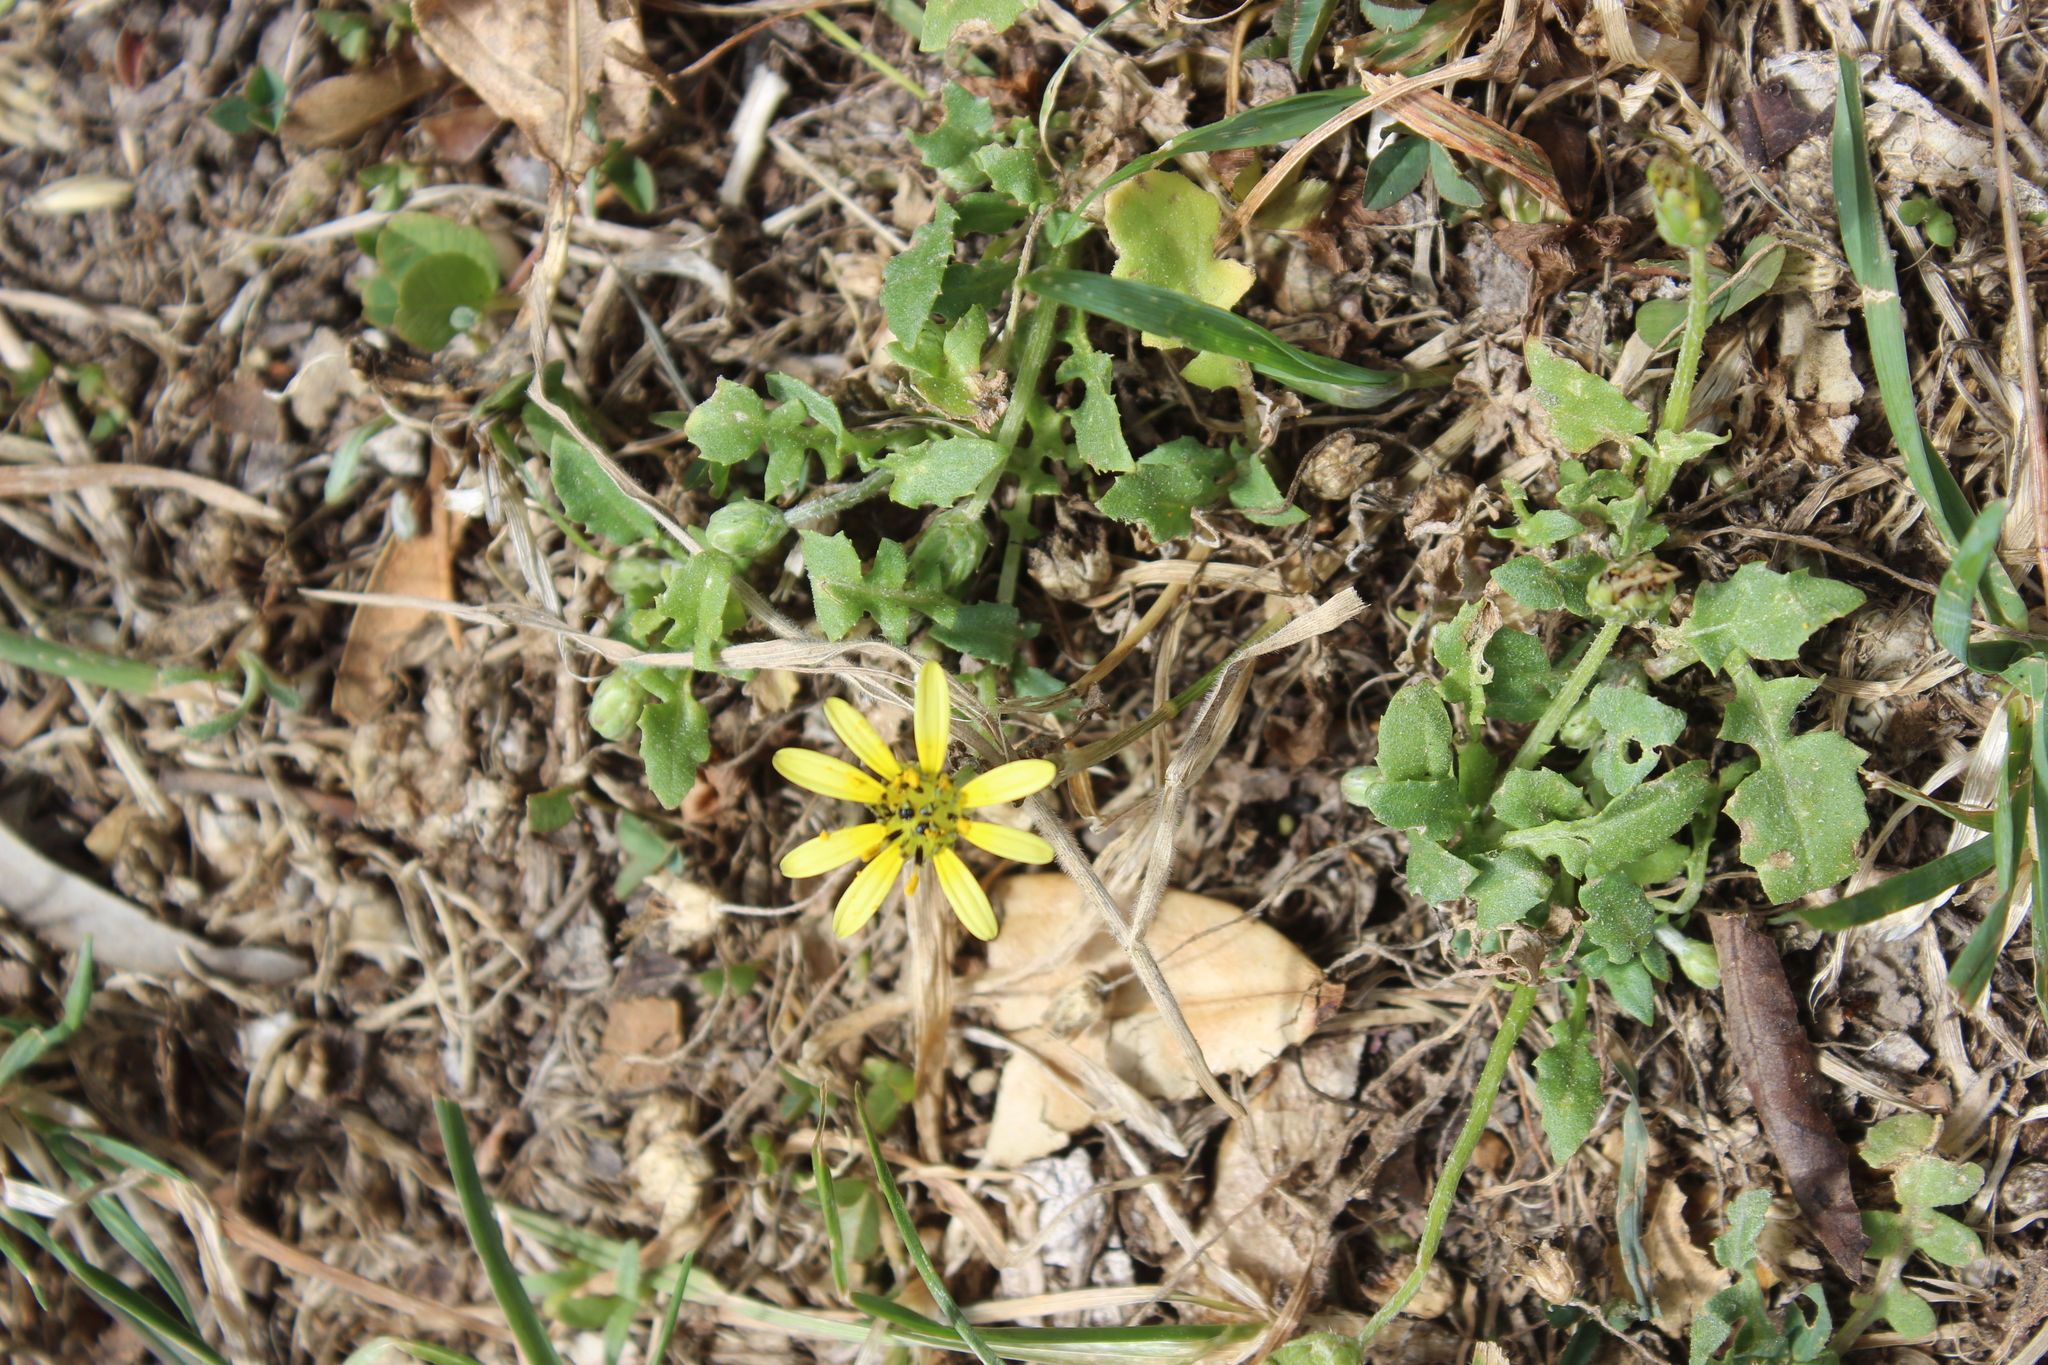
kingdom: Plantae
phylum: Tracheophyta
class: Magnoliopsida
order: Asterales
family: Asteraceae
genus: Arctotheca
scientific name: Arctotheca calendula
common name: Capeweed
